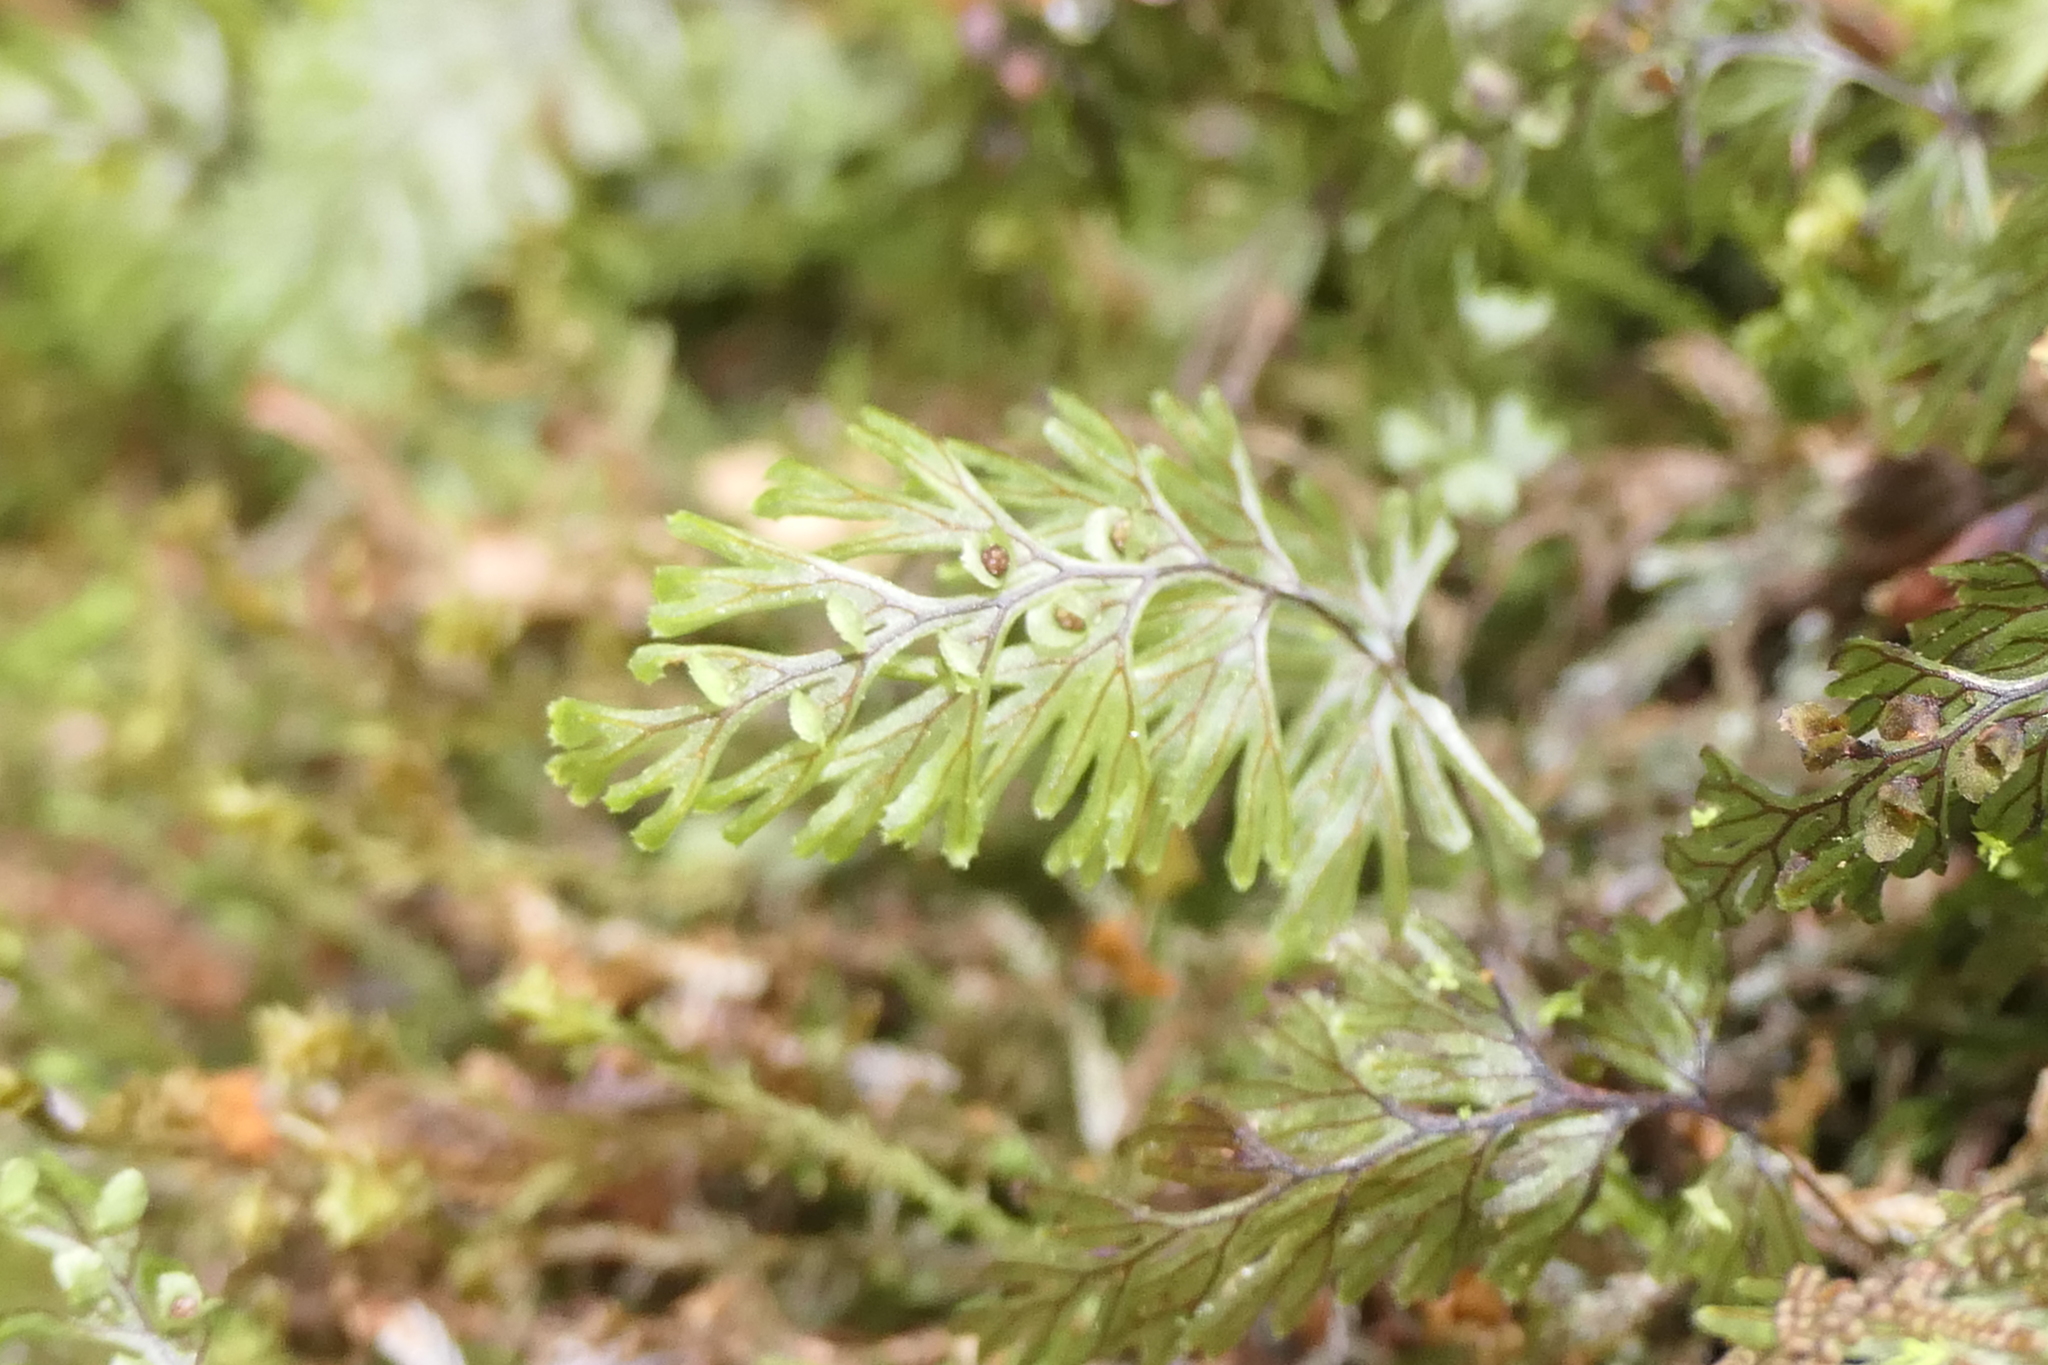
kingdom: Plantae
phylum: Tracheophyta
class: Polypodiopsida
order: Hymenophyllales
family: Hymenophyllaceae
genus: Hymenophyllum
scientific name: Hymenophyllum tunbrigense
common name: Tunbridge filmy fern
